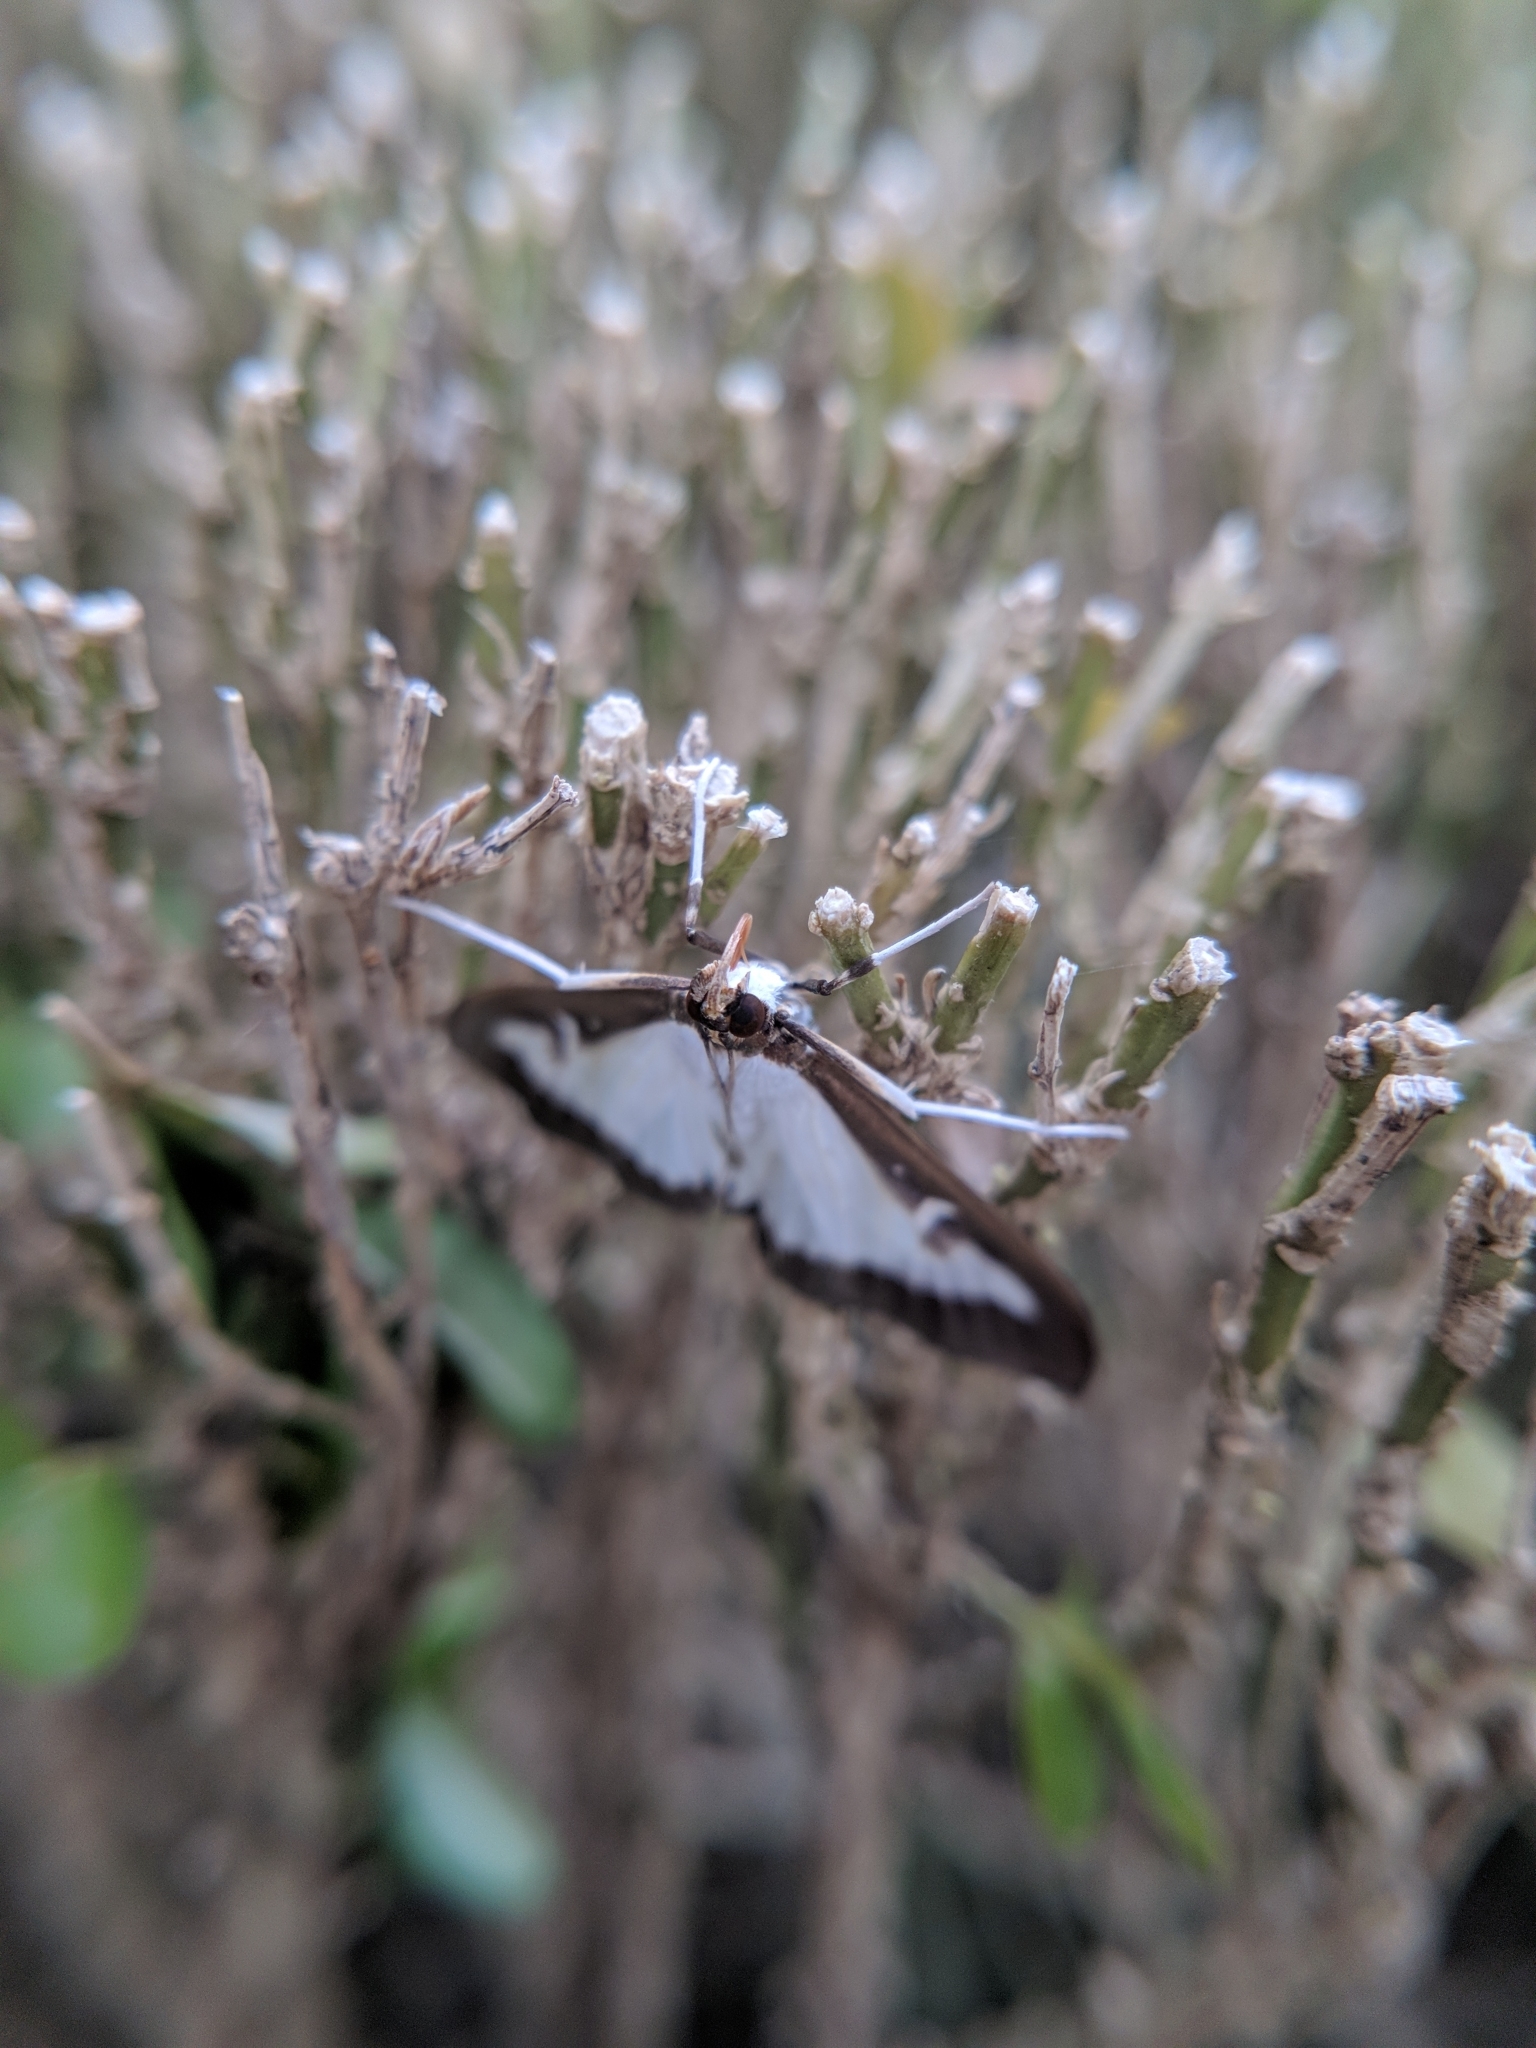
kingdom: Animalia
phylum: Arthropoda
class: Insecta
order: Lepidoptera
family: Crambidae
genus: Cydalima
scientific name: Cydalima perspectalis
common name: Box tree moth
